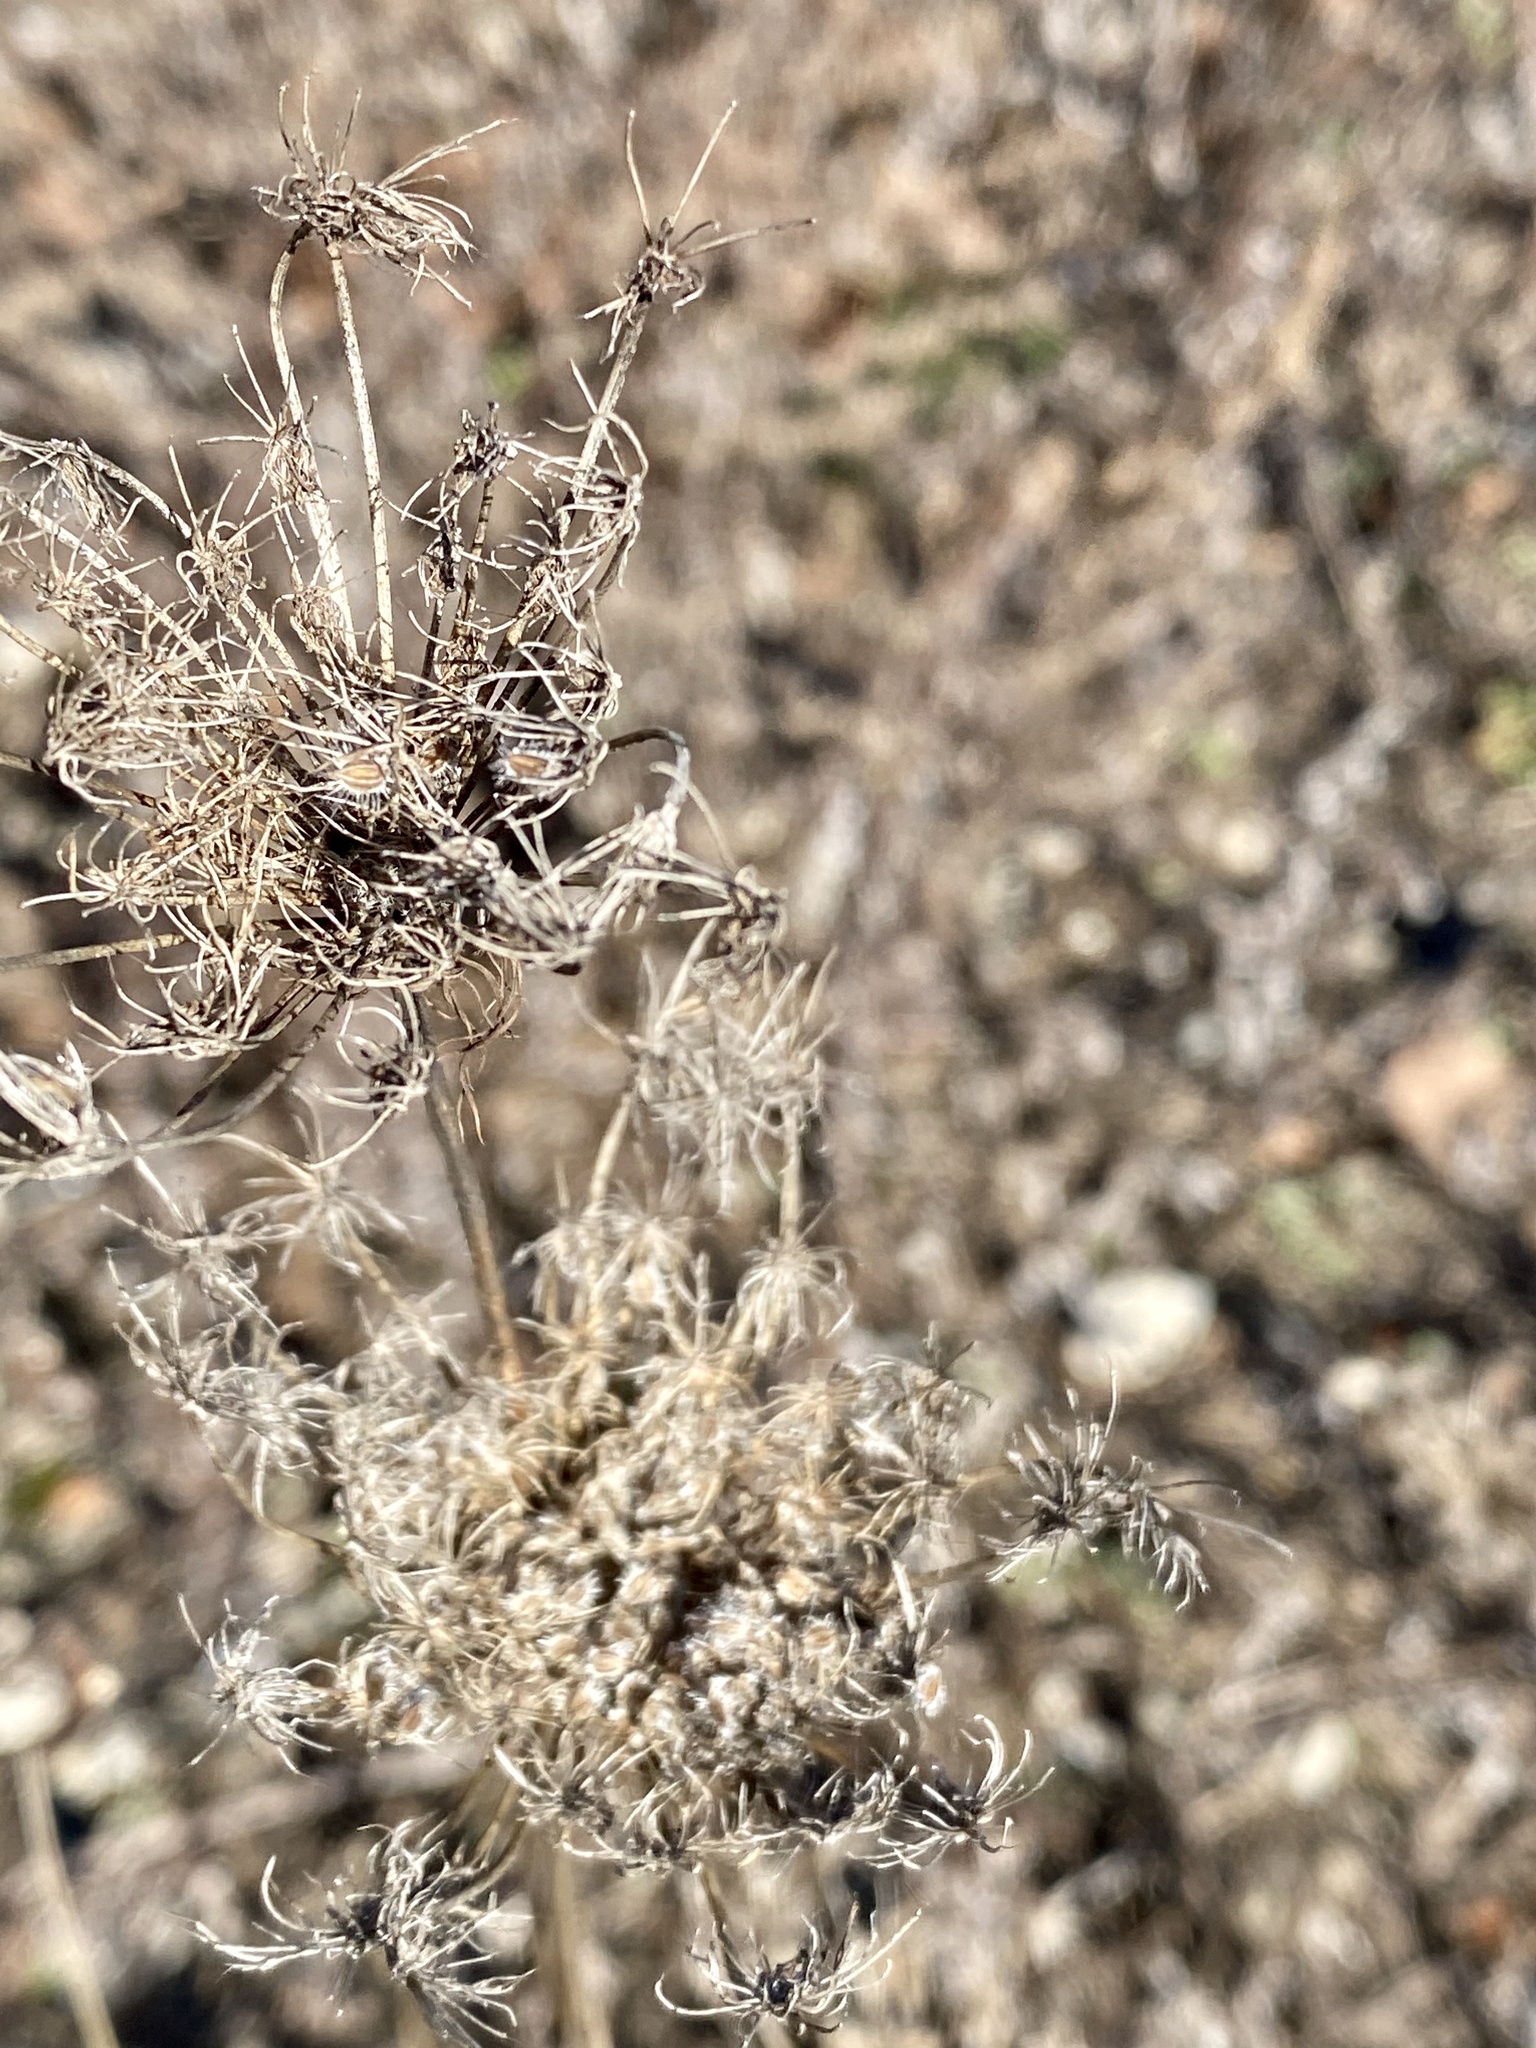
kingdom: Plantae
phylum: Tracheophyta
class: Magnoliopsida
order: Apiales
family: Apiaceae
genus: Daucus
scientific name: Daucus carota
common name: Wild carrot
